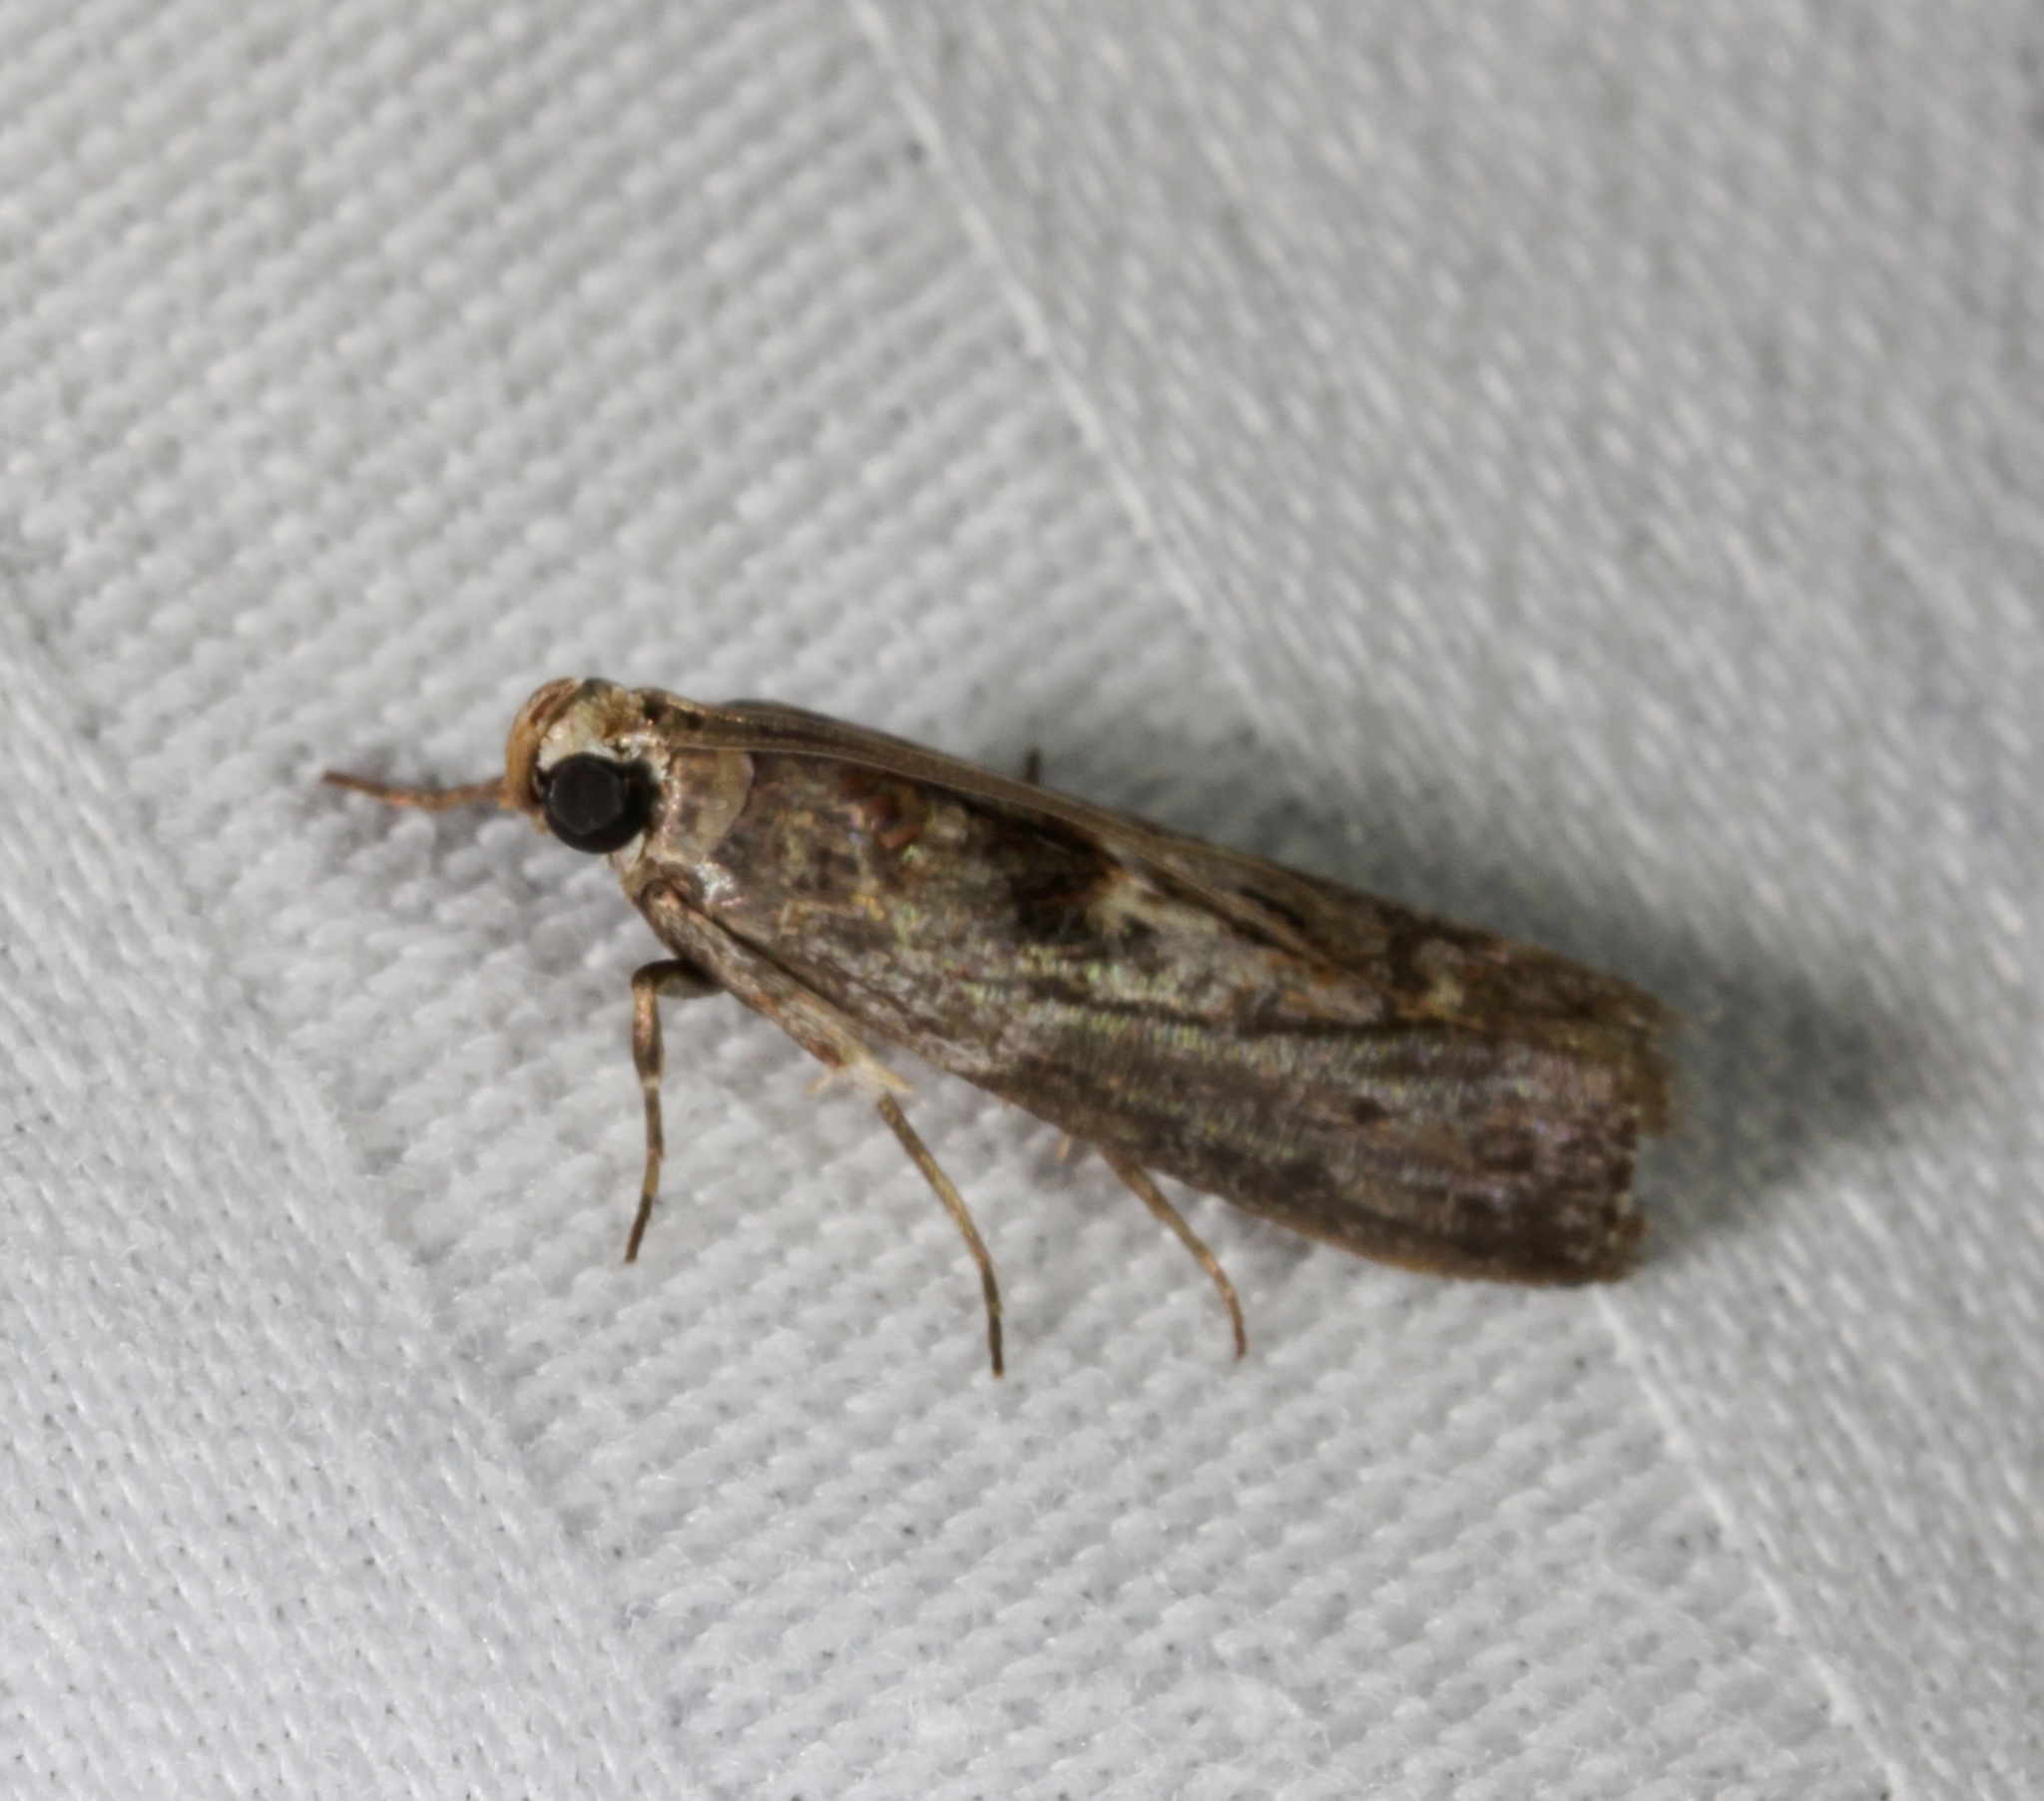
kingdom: Animalia
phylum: Arthropoda
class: Insecta
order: Lepidoptera
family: Pyralidae
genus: Nephopterix
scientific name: Nephopterix
